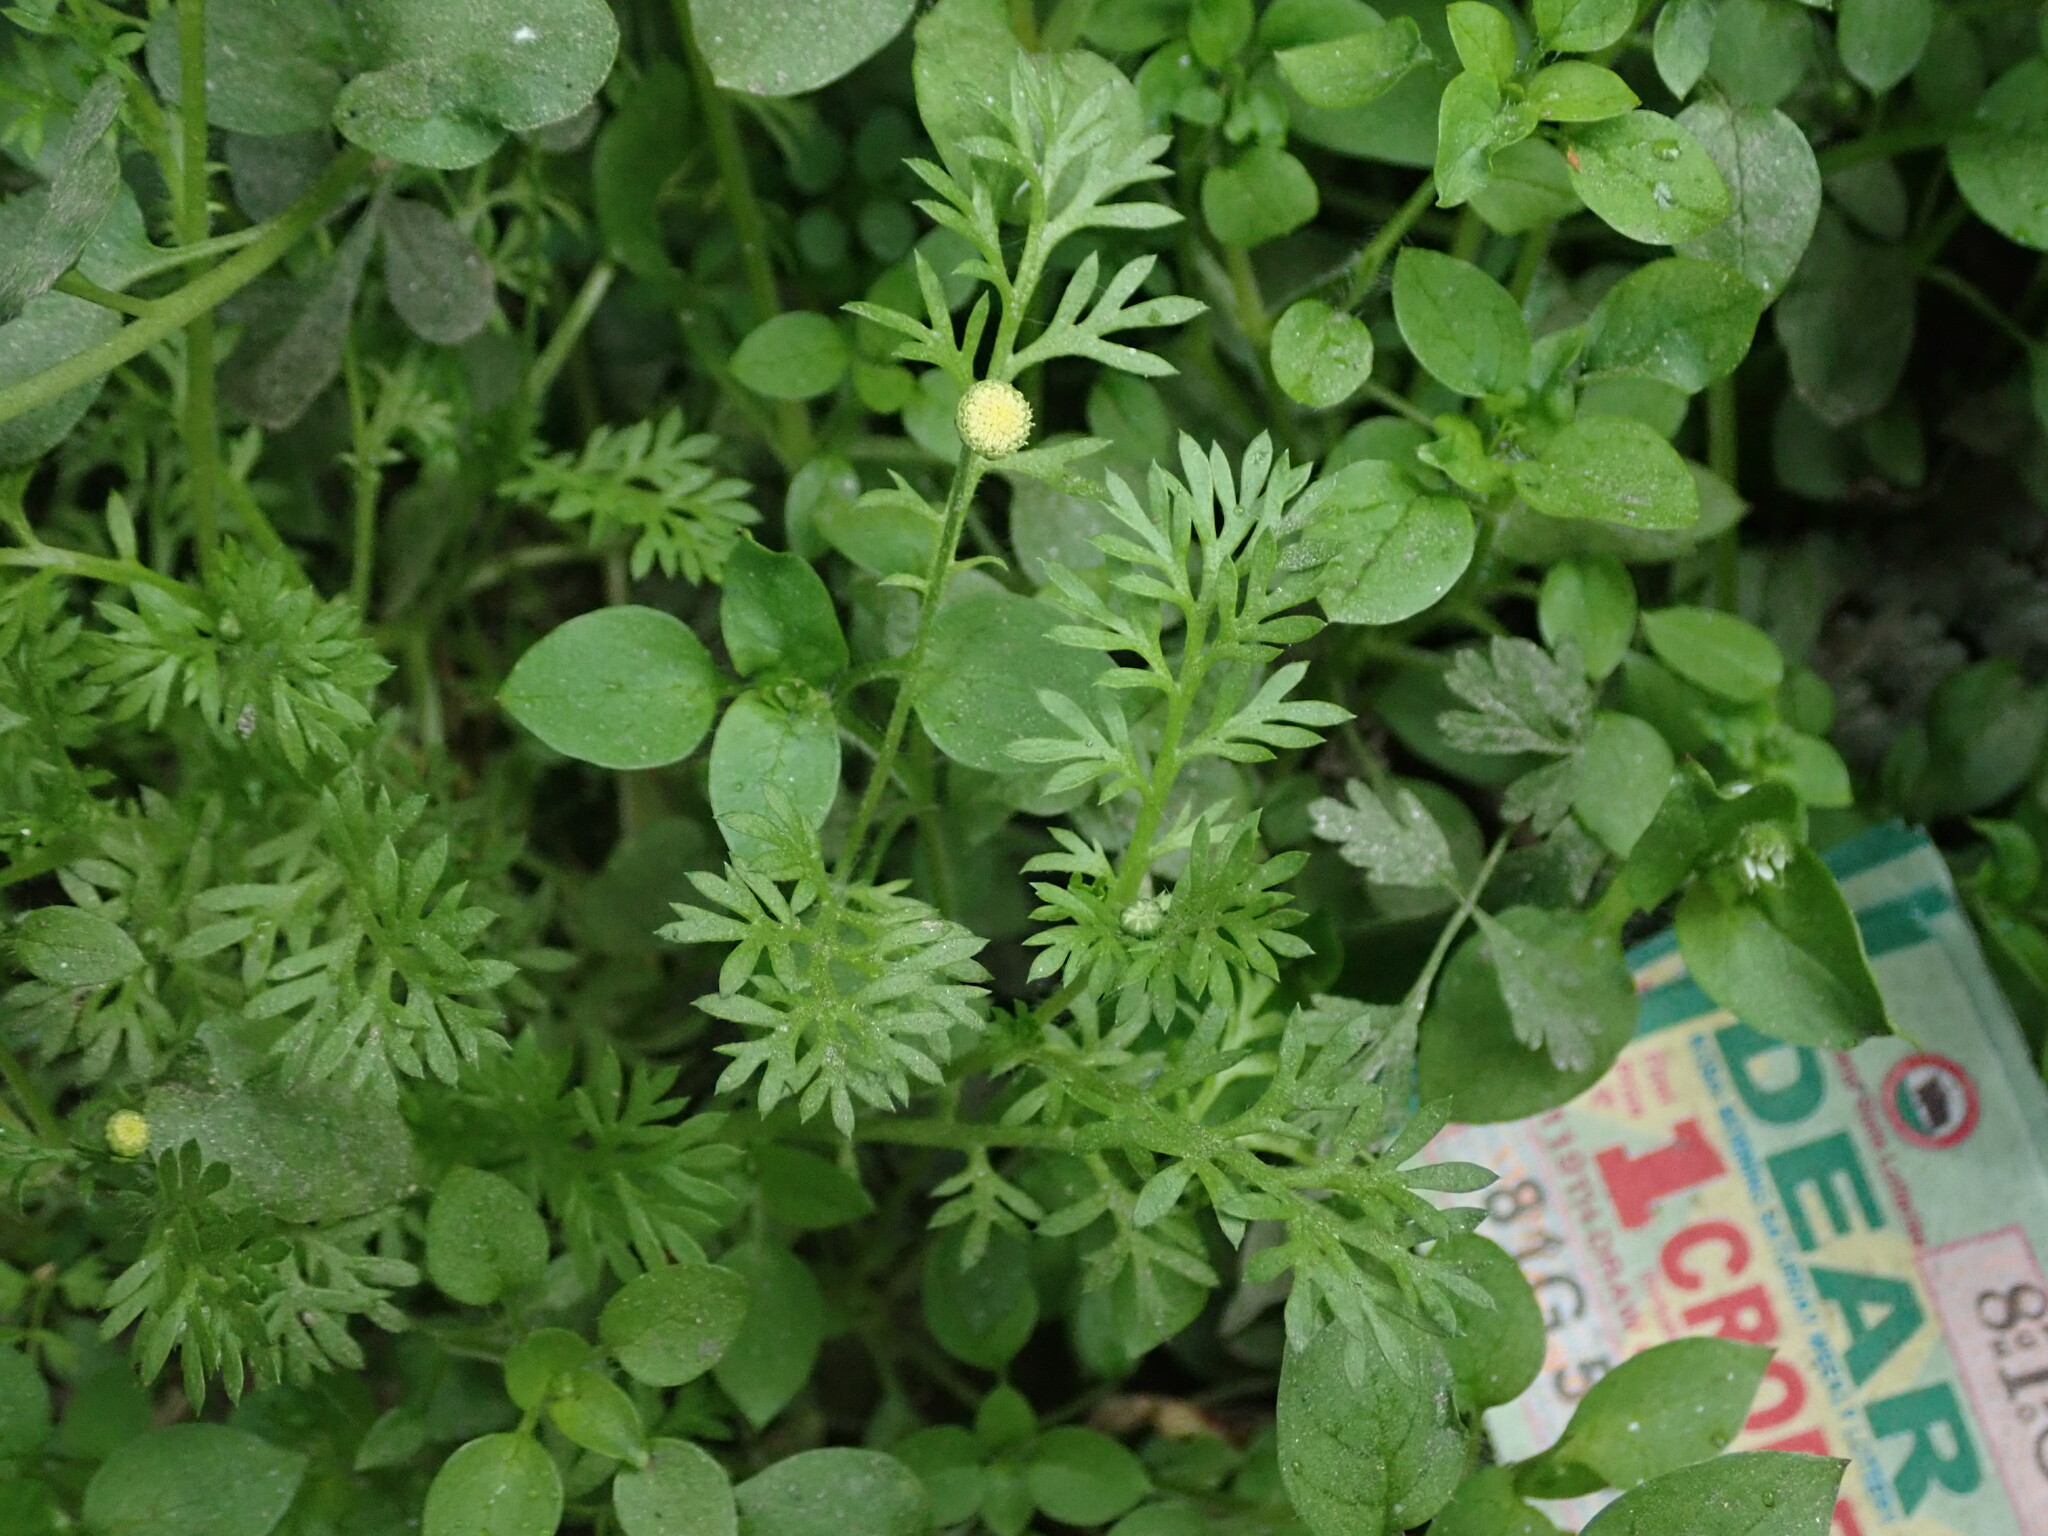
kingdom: Plantae
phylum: Tracheophyta
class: Magnoliopsida
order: Asterales
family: Asteraceae
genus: Cotula
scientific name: Cotula australis
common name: Australian waterbuttons
